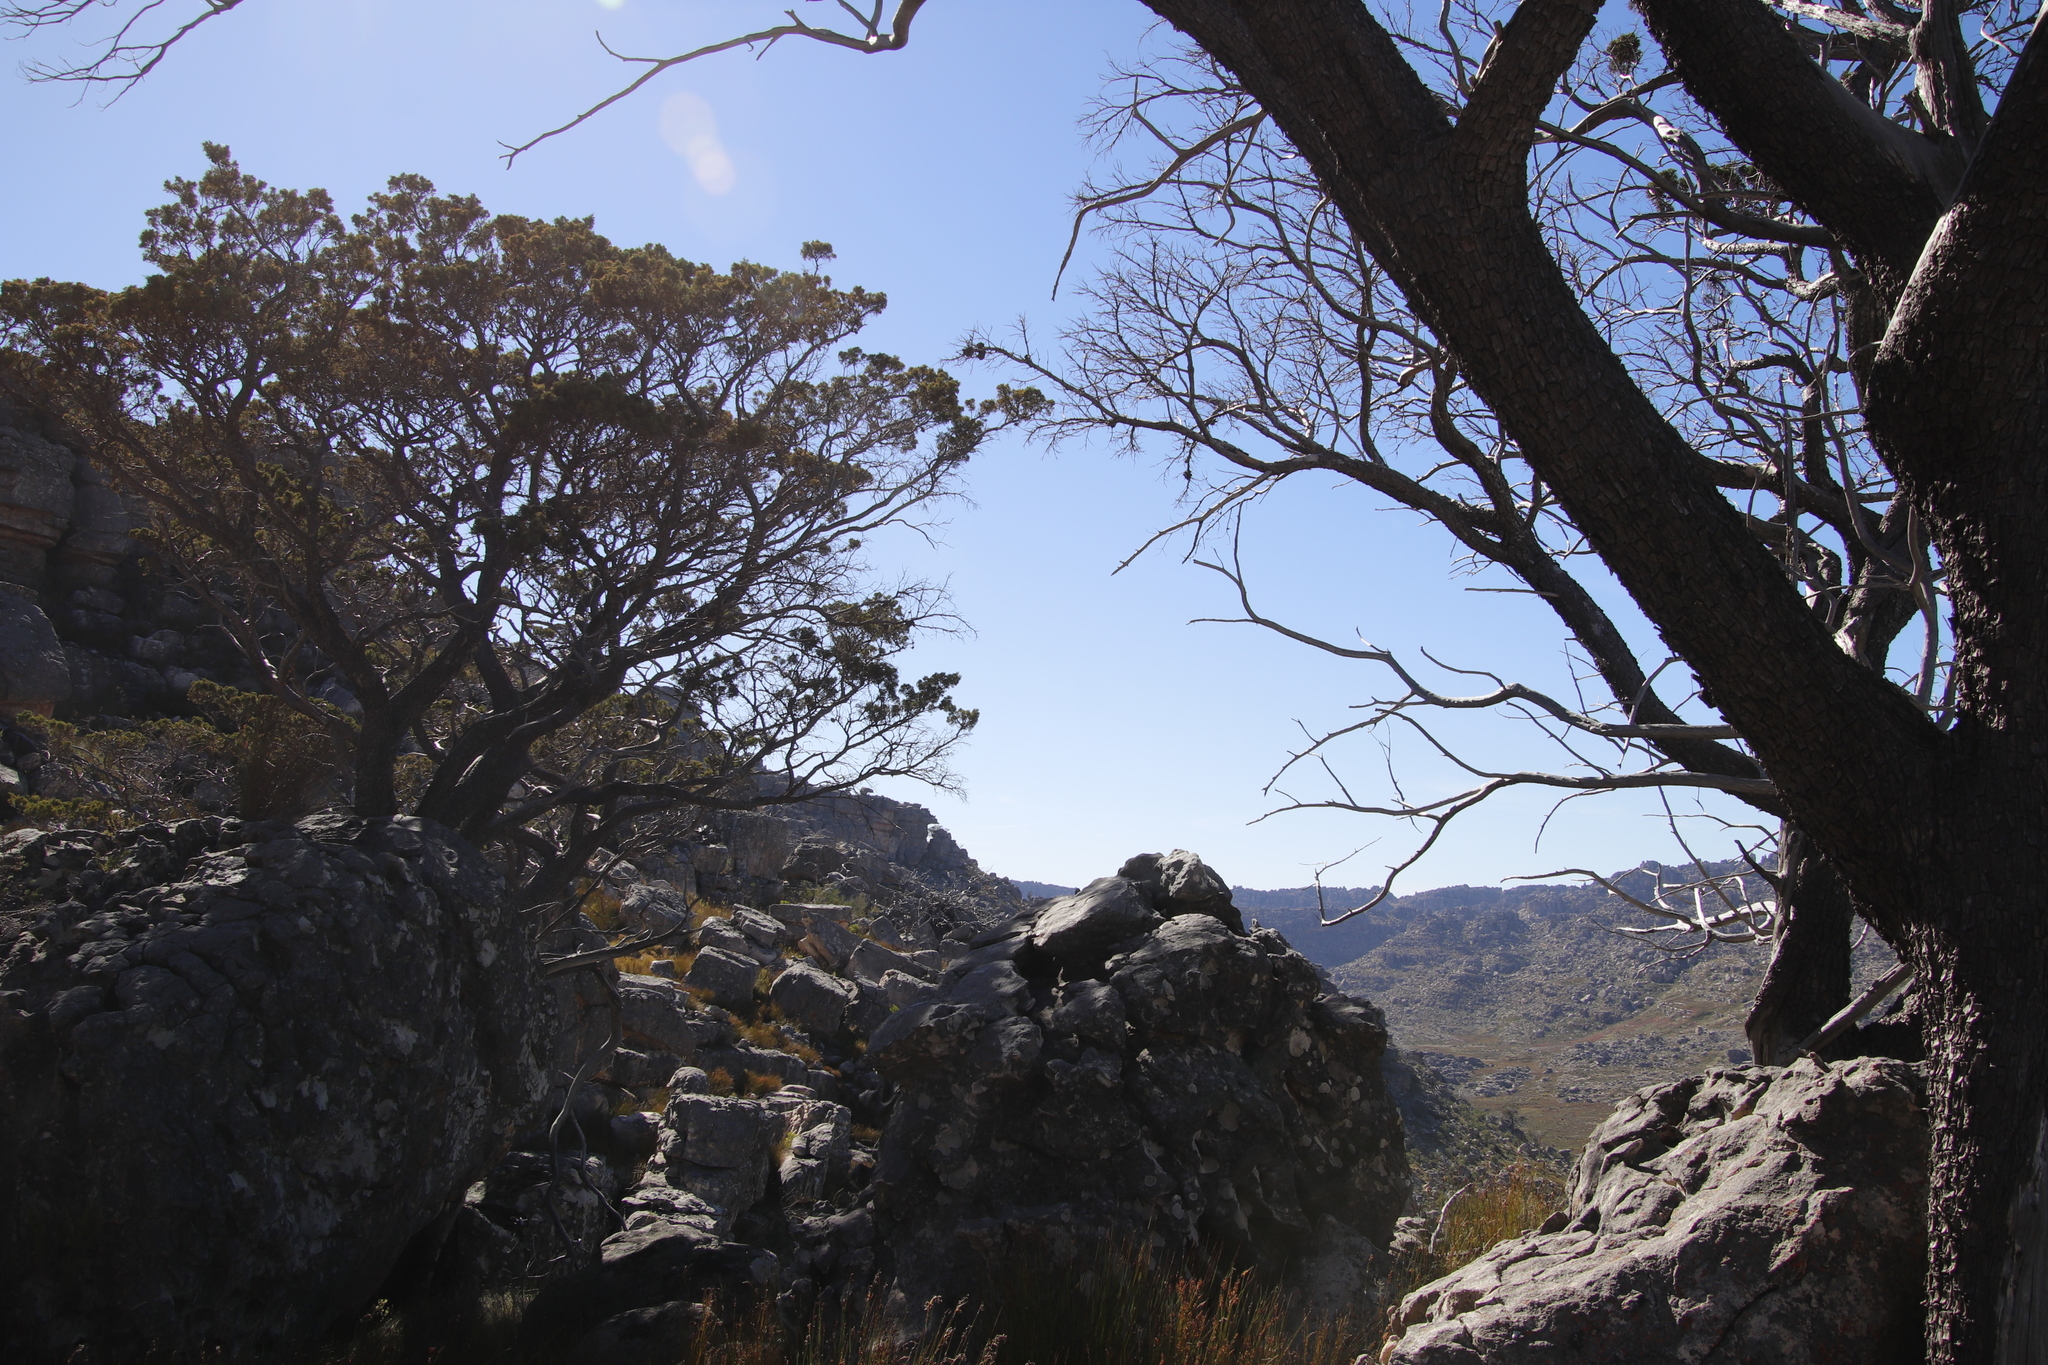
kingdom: Plantae
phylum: Tracheophyta
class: Pinopsida
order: Pinales
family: Cupressaceae
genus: Widdringtonia
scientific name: Widdringtonia nodiflora
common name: Cape cypress
